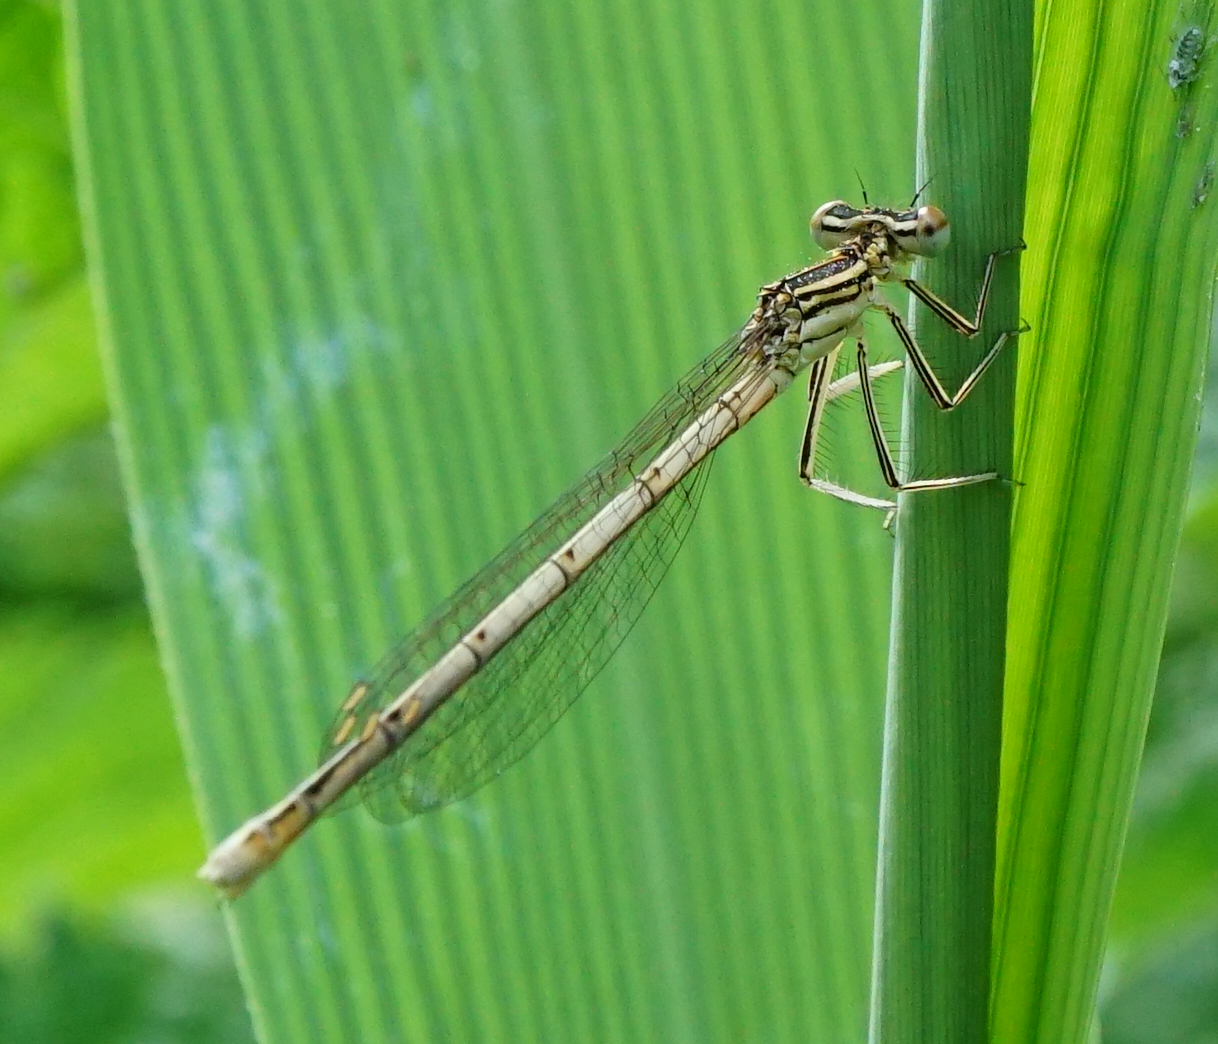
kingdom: Animalia
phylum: Arthropoda
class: Insecta
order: Odonata
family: Platycnemididae
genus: Platycnemis
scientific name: Platycnemis pennipes
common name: White-legged damselfly
